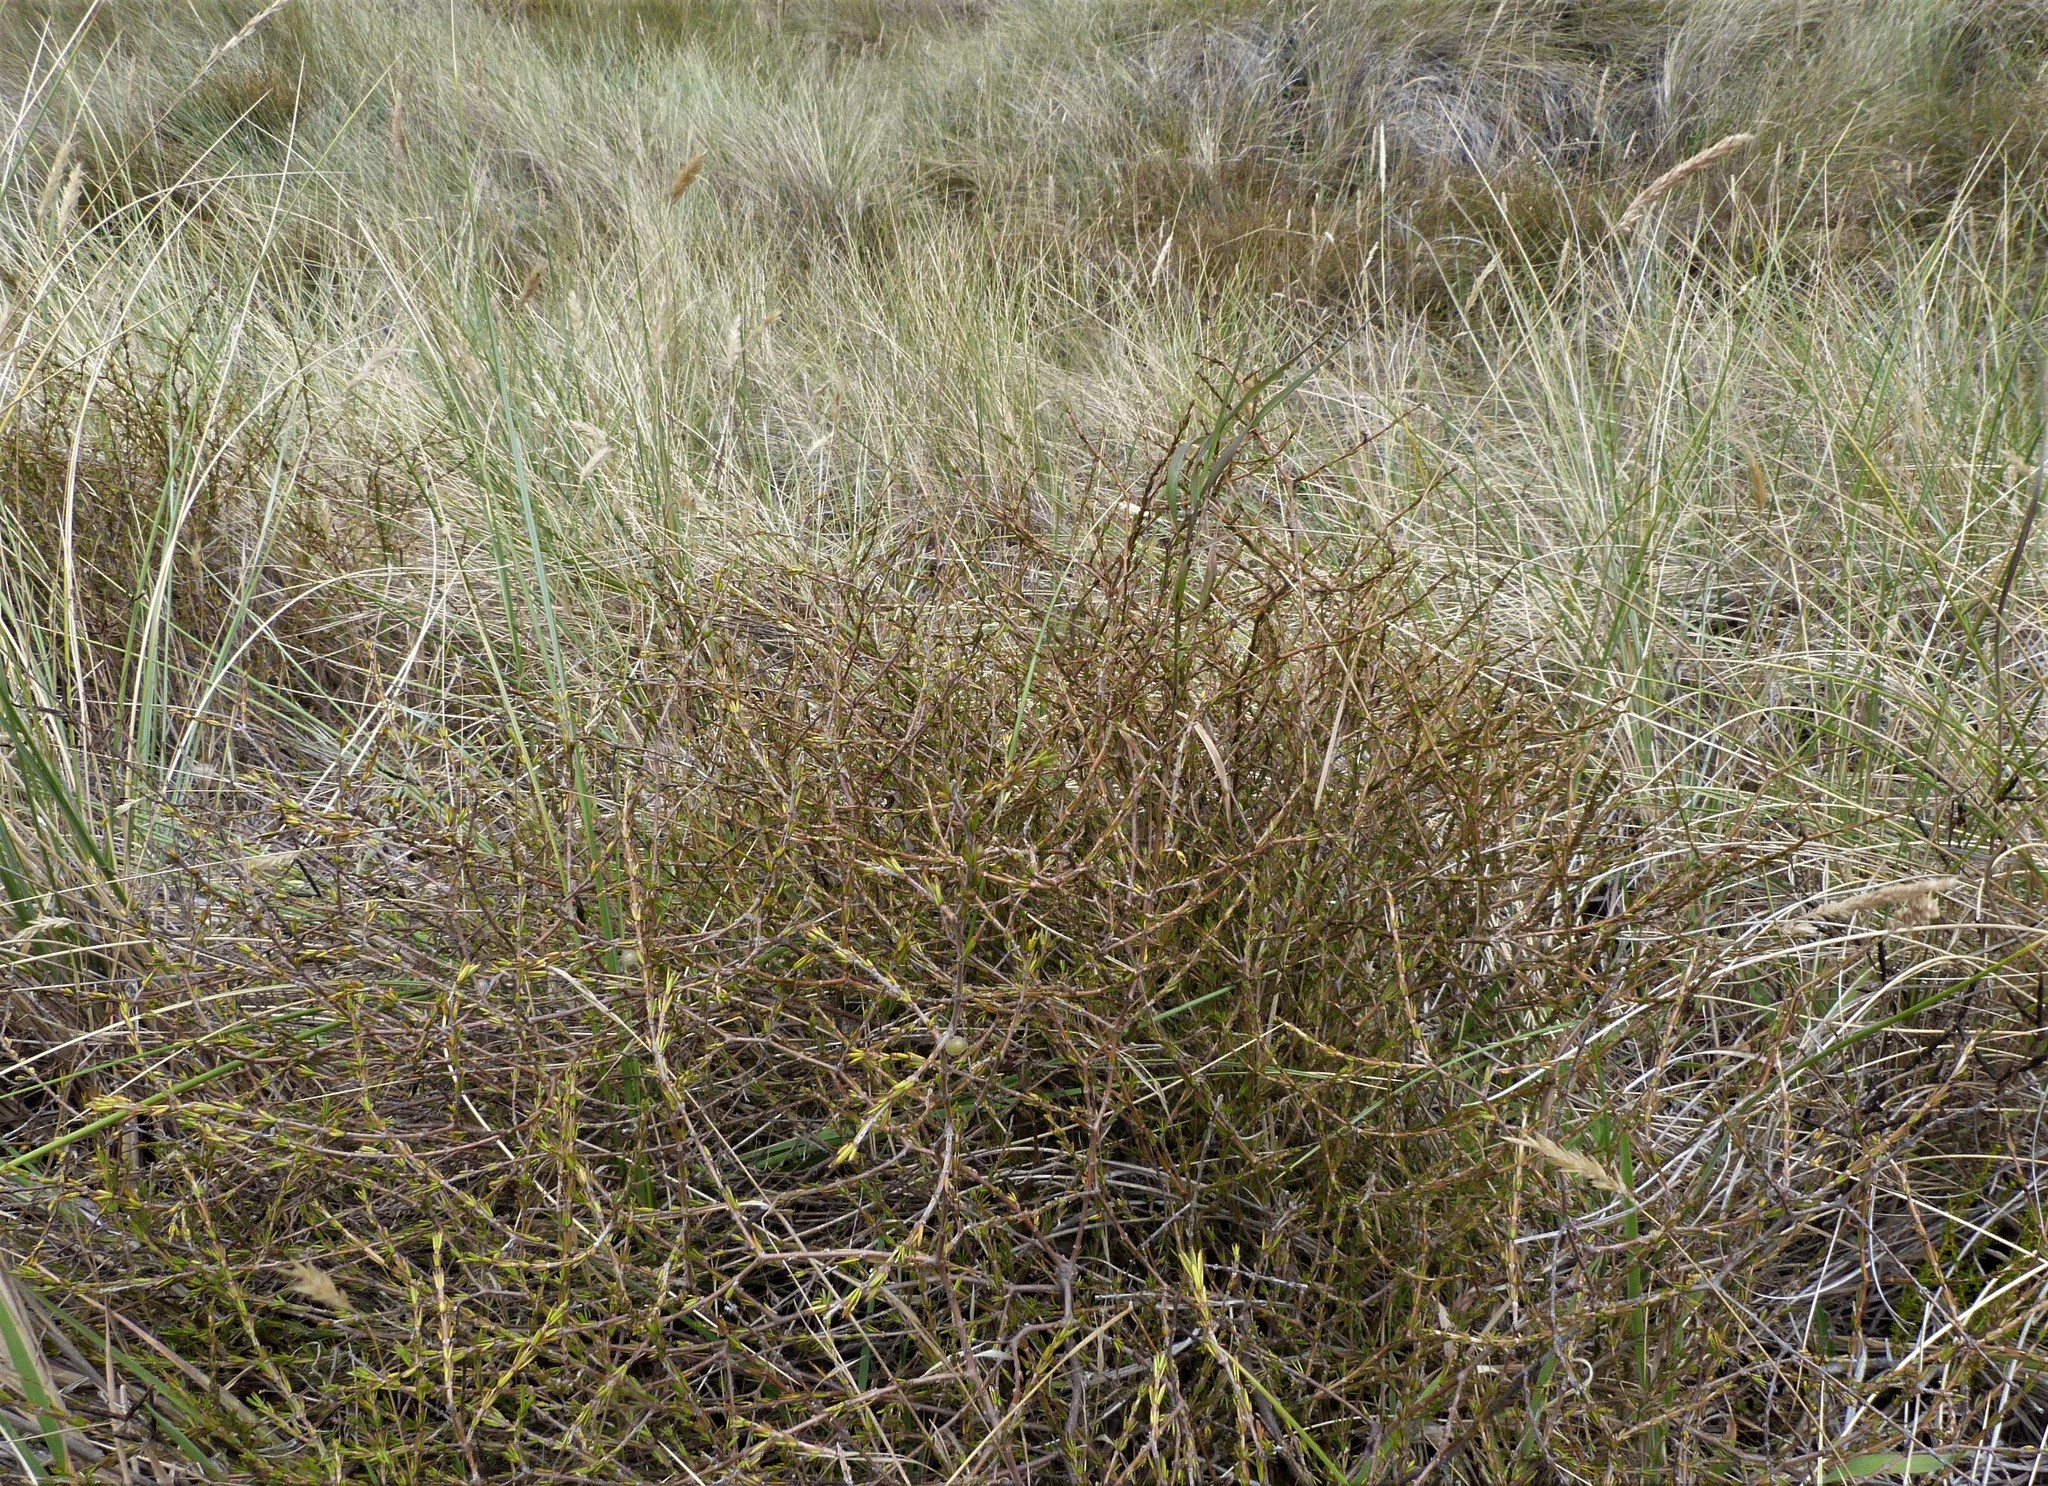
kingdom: Plantae
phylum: Tracheophyta
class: Magnoliopsida
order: Gentianales
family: Rubiaceae
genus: Coprosma
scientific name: Coprosma acerosa
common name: Sand coprosma
